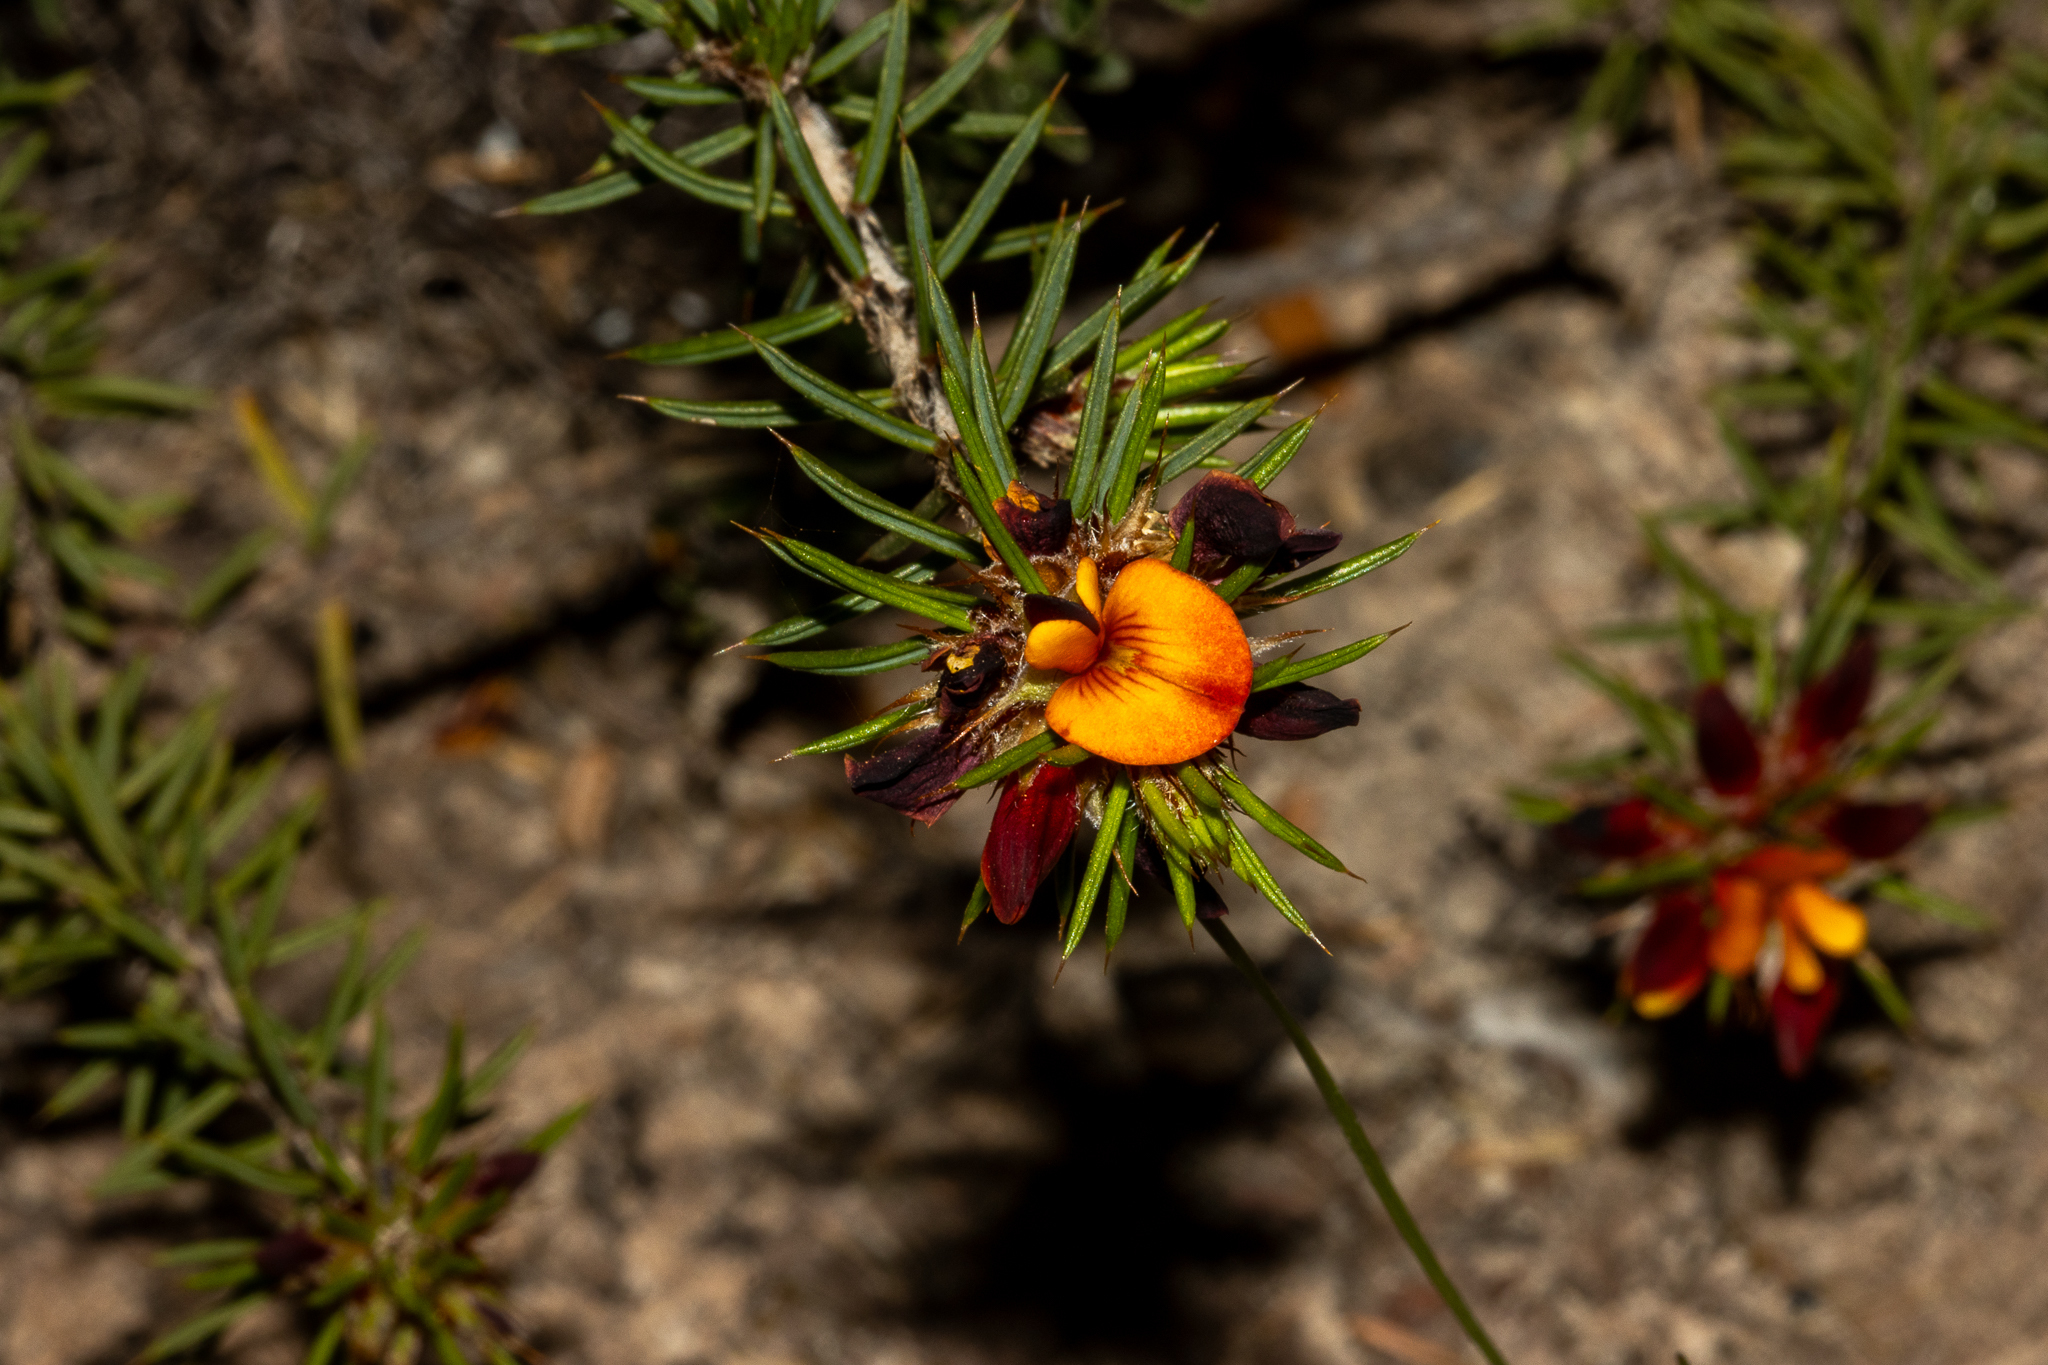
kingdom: Plantae
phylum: Tracheophyta
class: Magnoliopsida
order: Fabales
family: Fabaceae
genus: Pultenaea
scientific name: Pultenaea acerosa
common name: Bristly bush-pea
